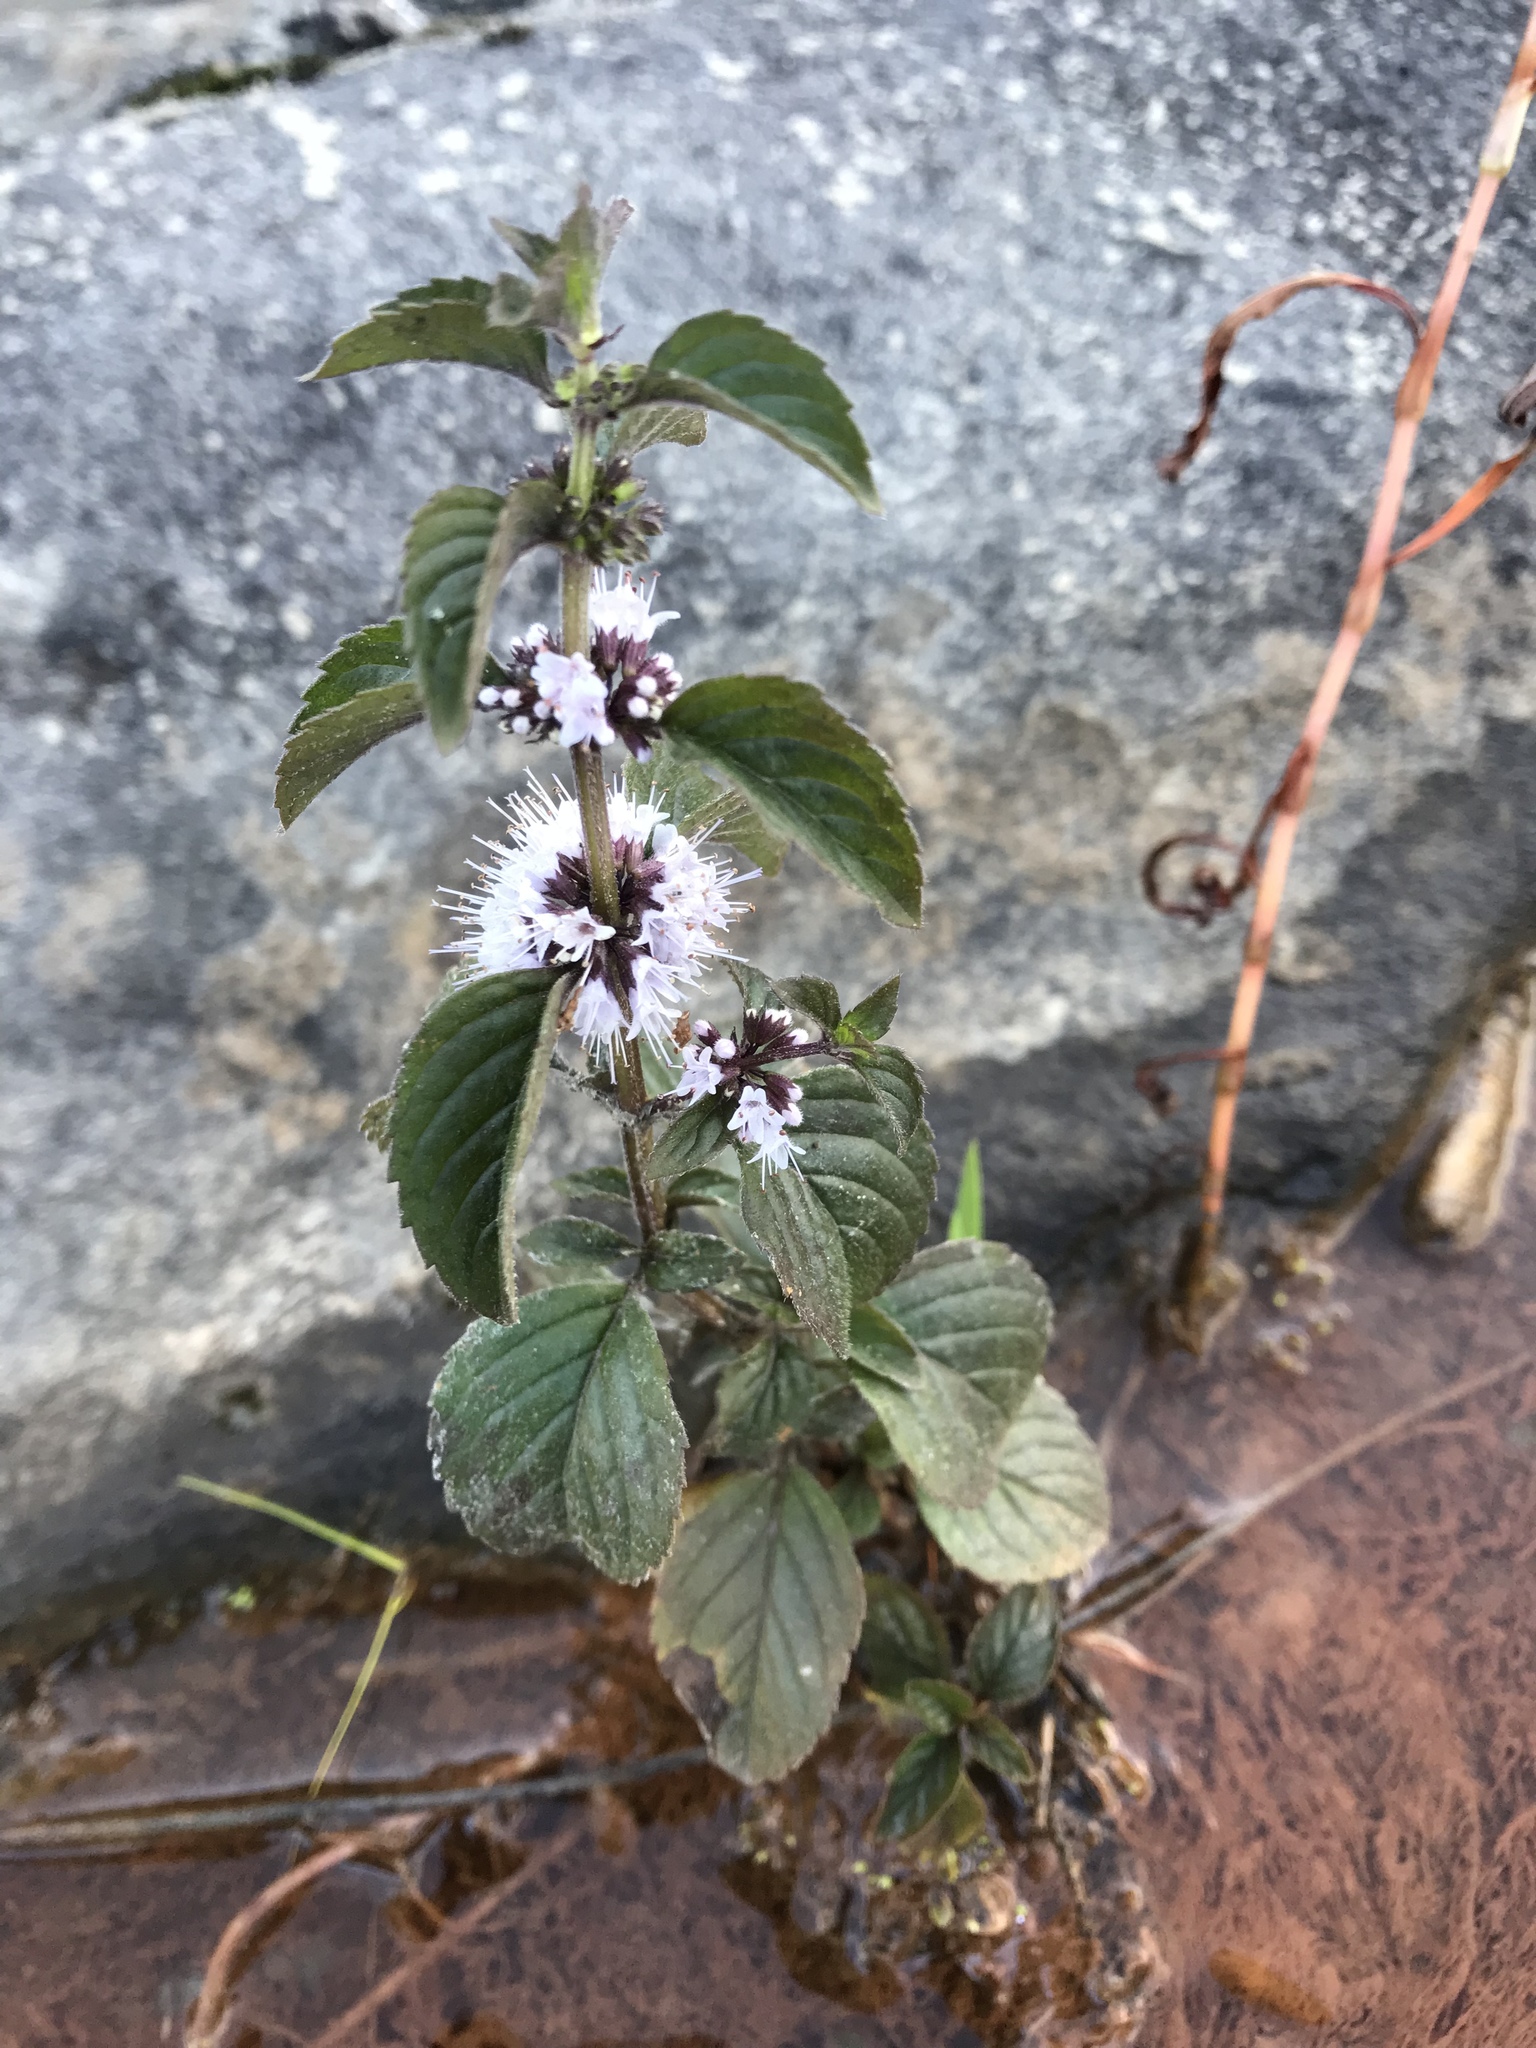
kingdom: Plantae
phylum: Tracheophyta
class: Magnoliopsida
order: Lamiales
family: Lamiaceae
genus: Mentha
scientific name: Mentha arvensis
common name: Corn mint
